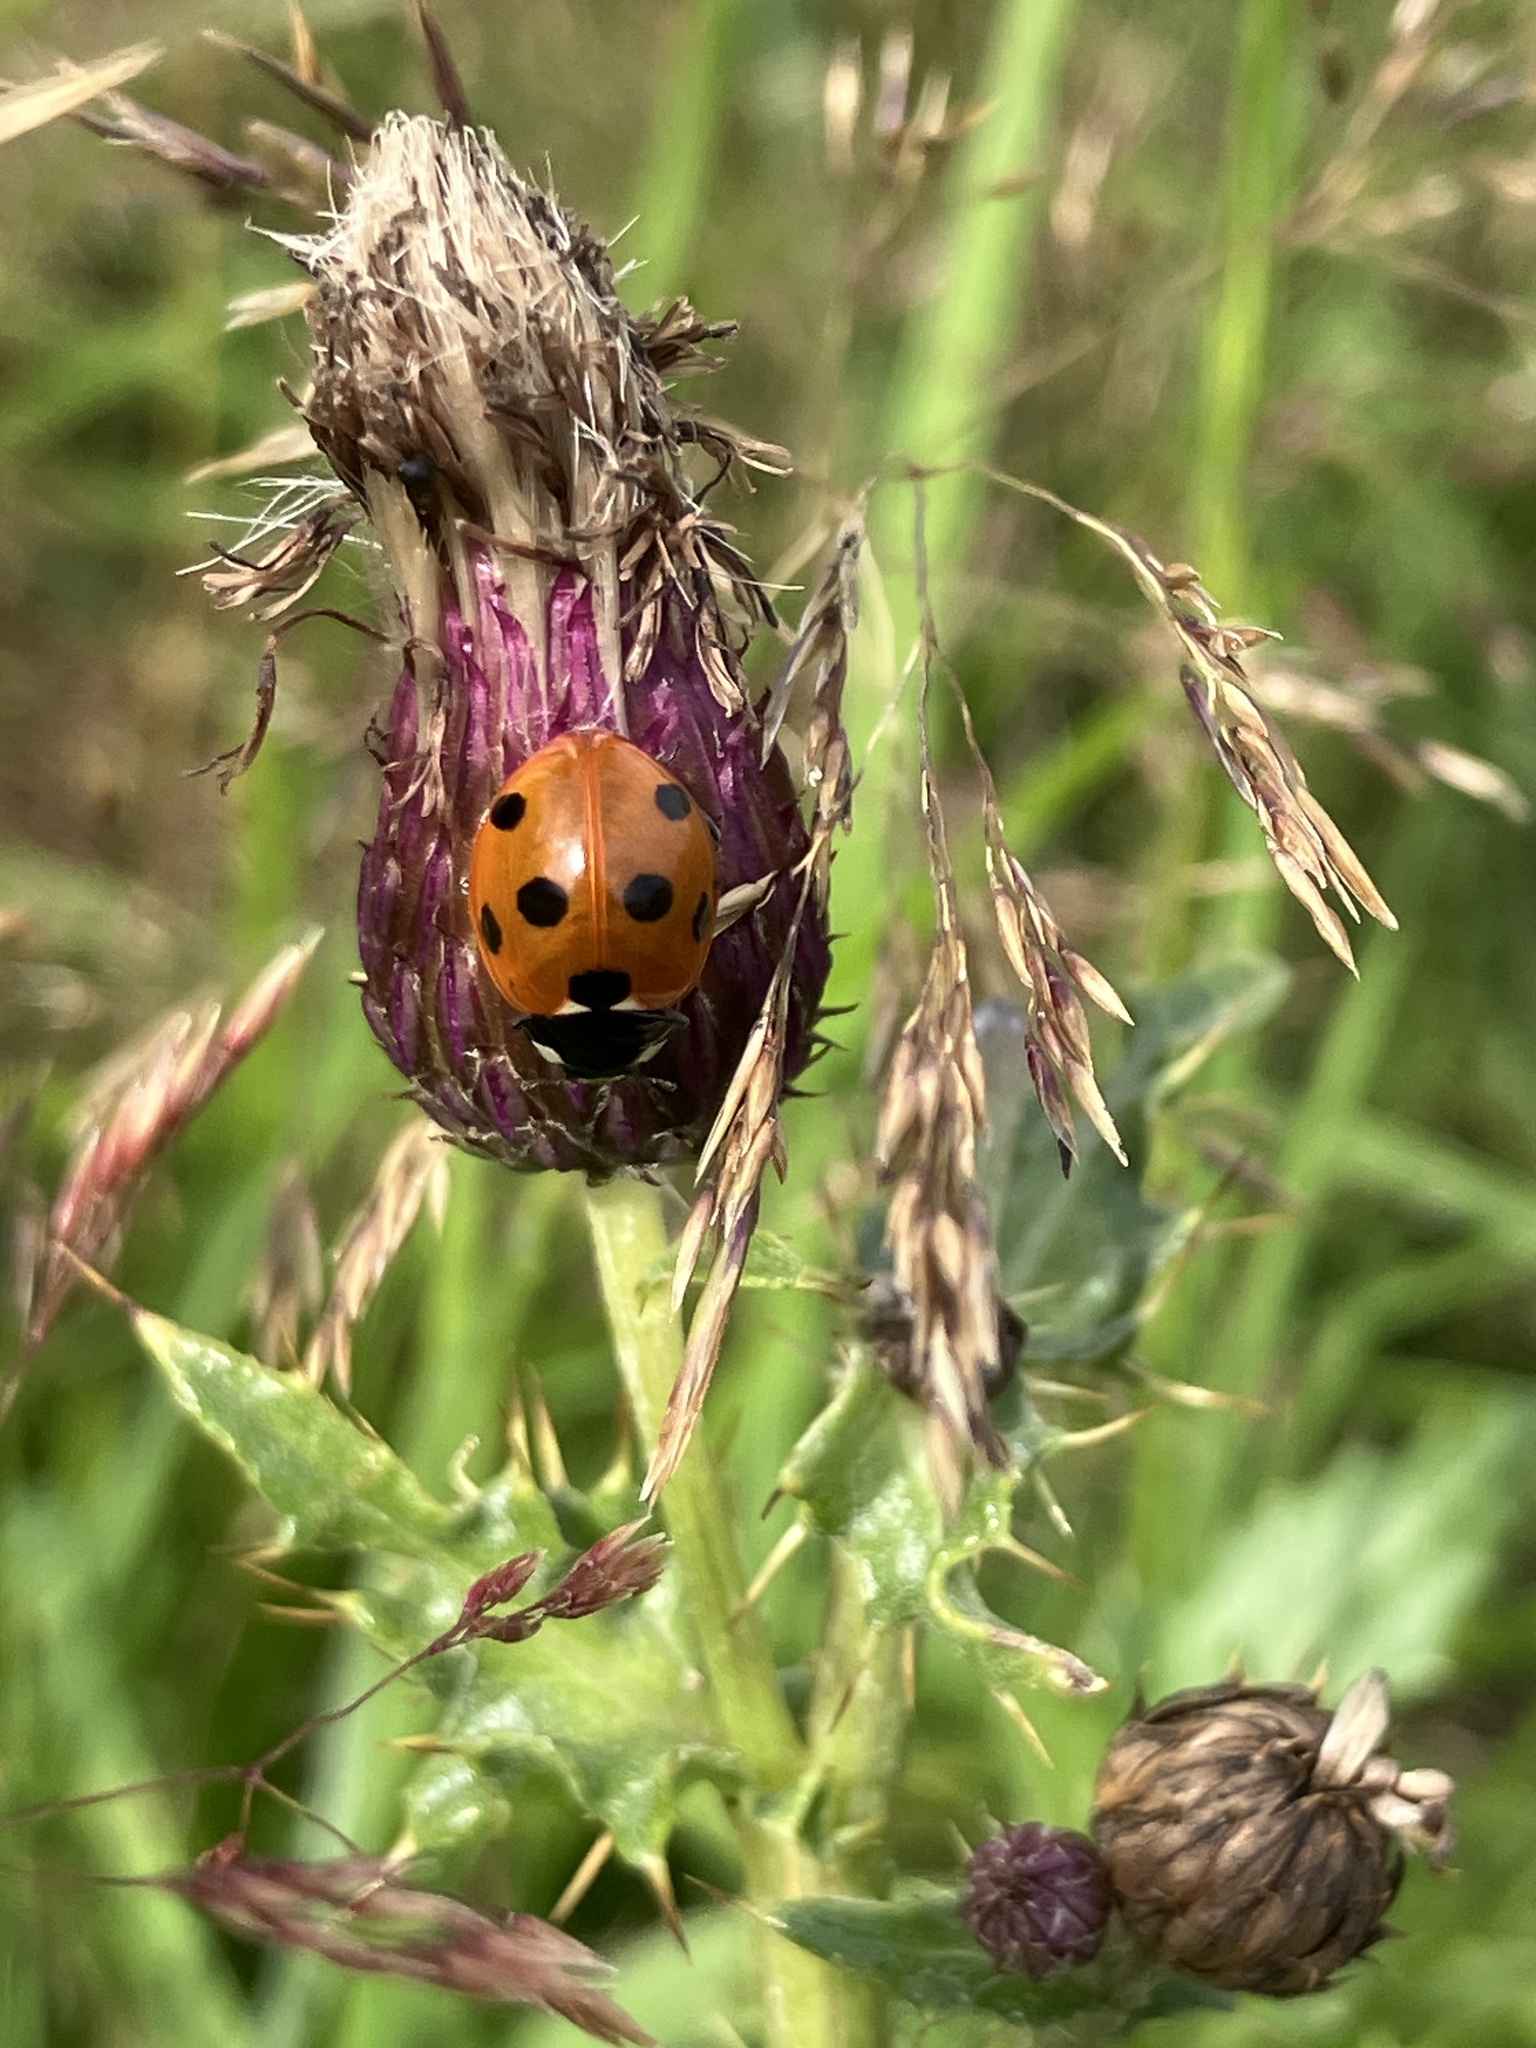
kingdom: Animalia
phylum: Arthropoda
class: Insecta
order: Coleoptera
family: Coccinellidae
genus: Coccinella
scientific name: Coccinella septempunctata
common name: Sevenspotted lady beetle
